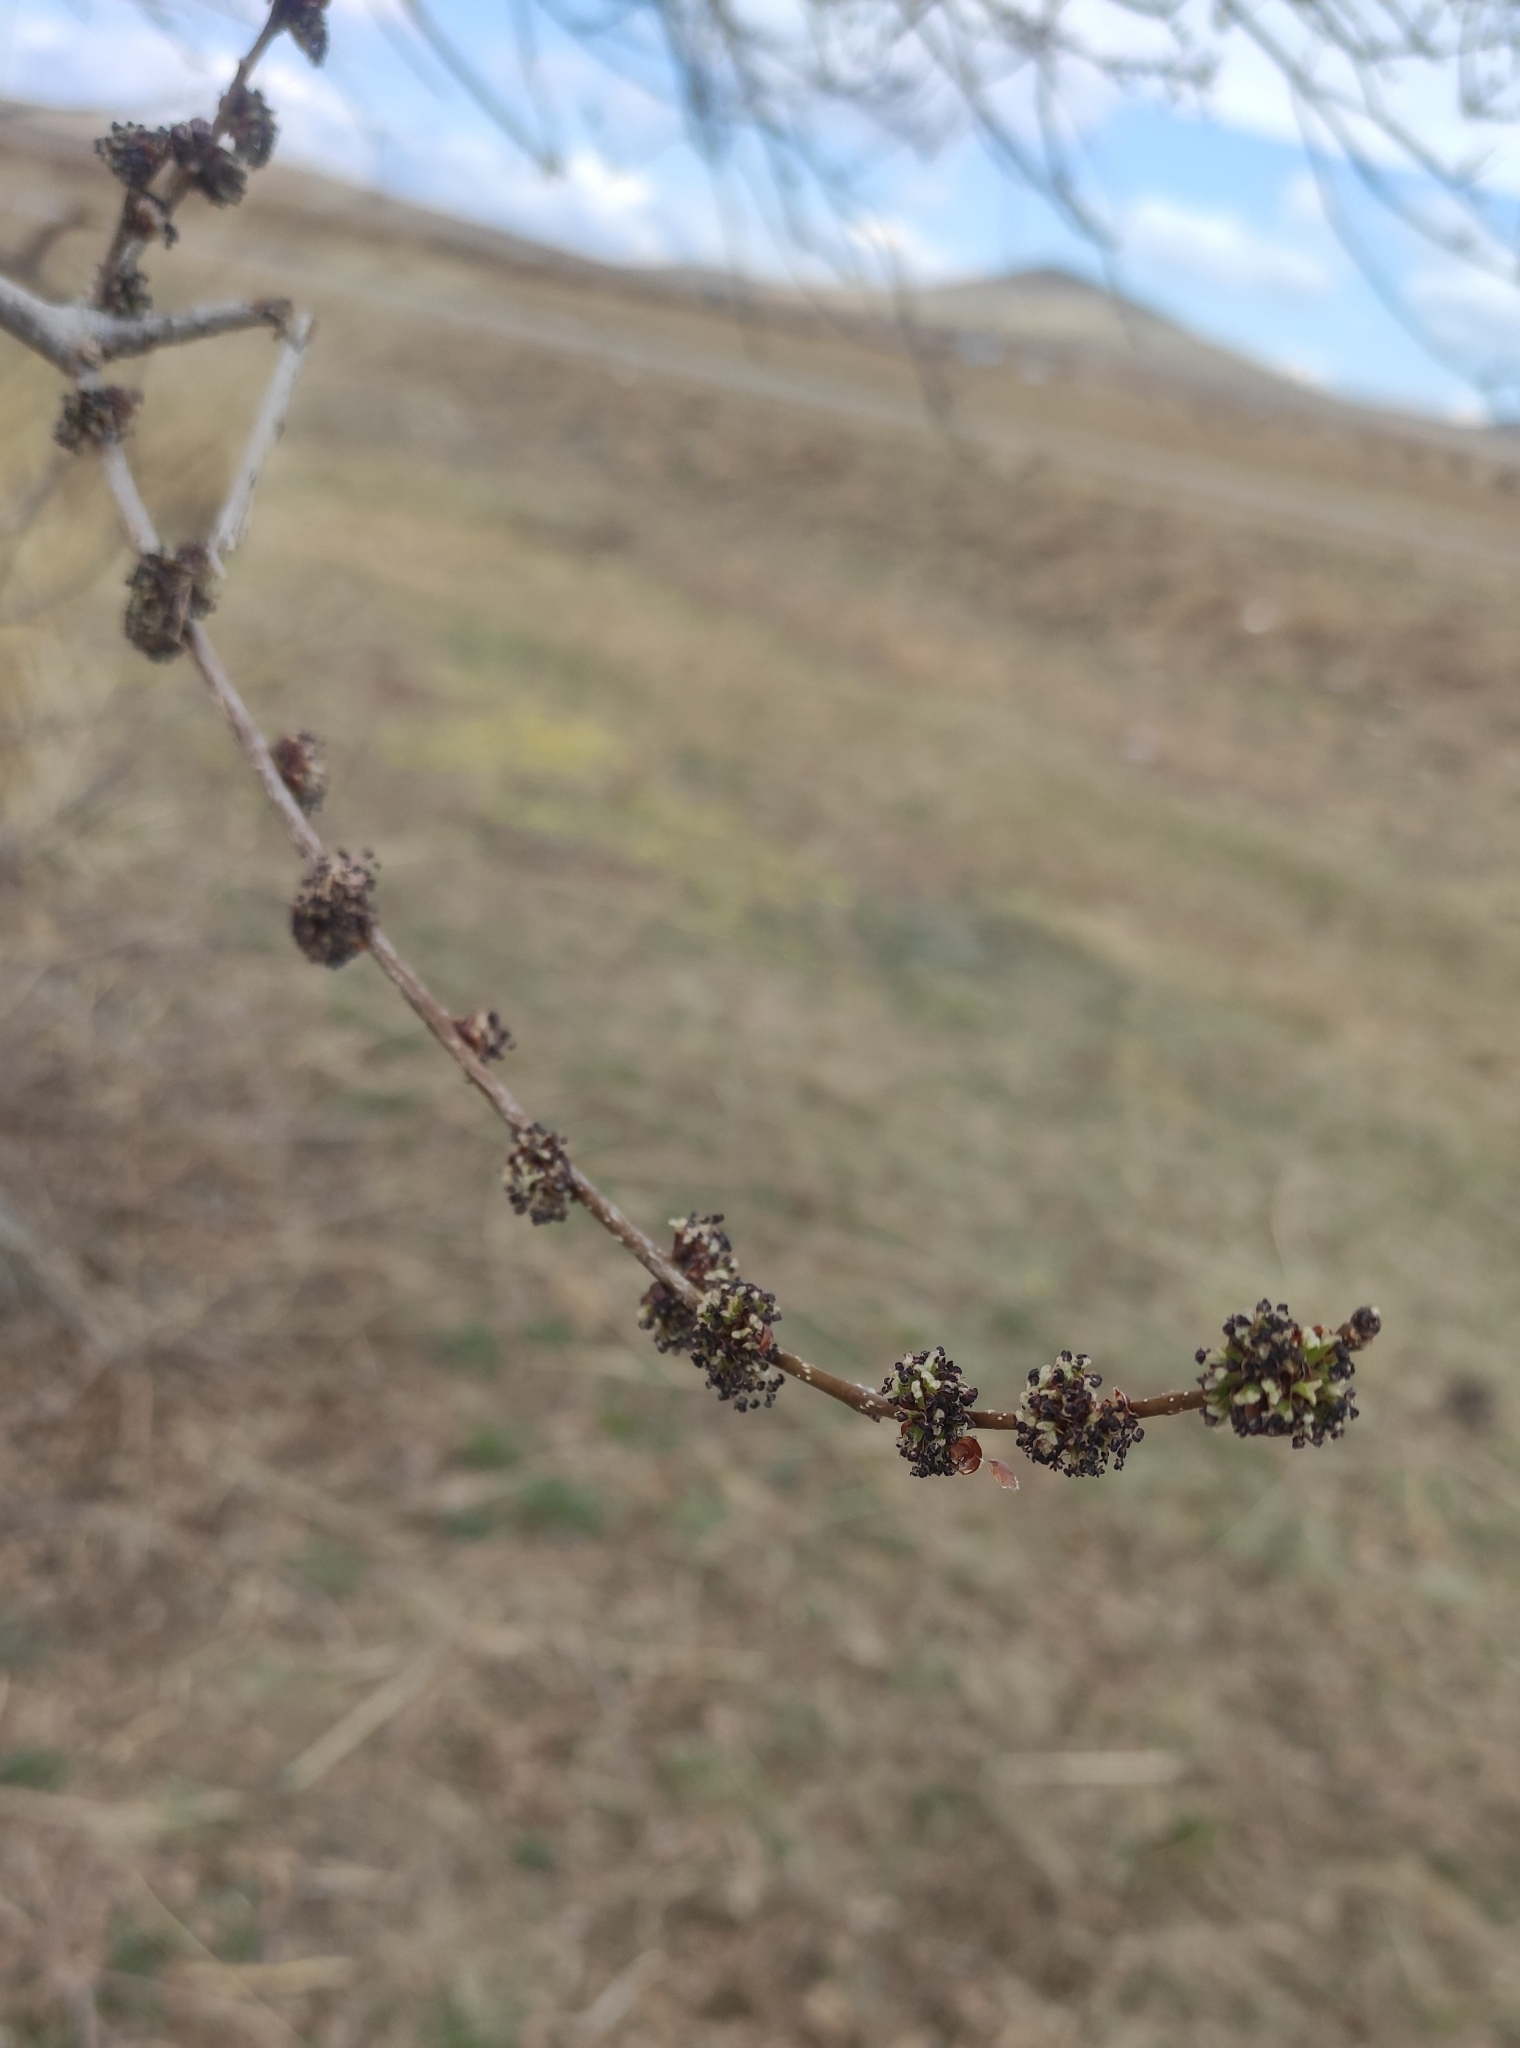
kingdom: Plantae
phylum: Tracheophyta
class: Magnoliopsida
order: Rosales
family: Ulmaceae
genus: Ulmus
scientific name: Ulmus pumila
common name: Siberian elm
